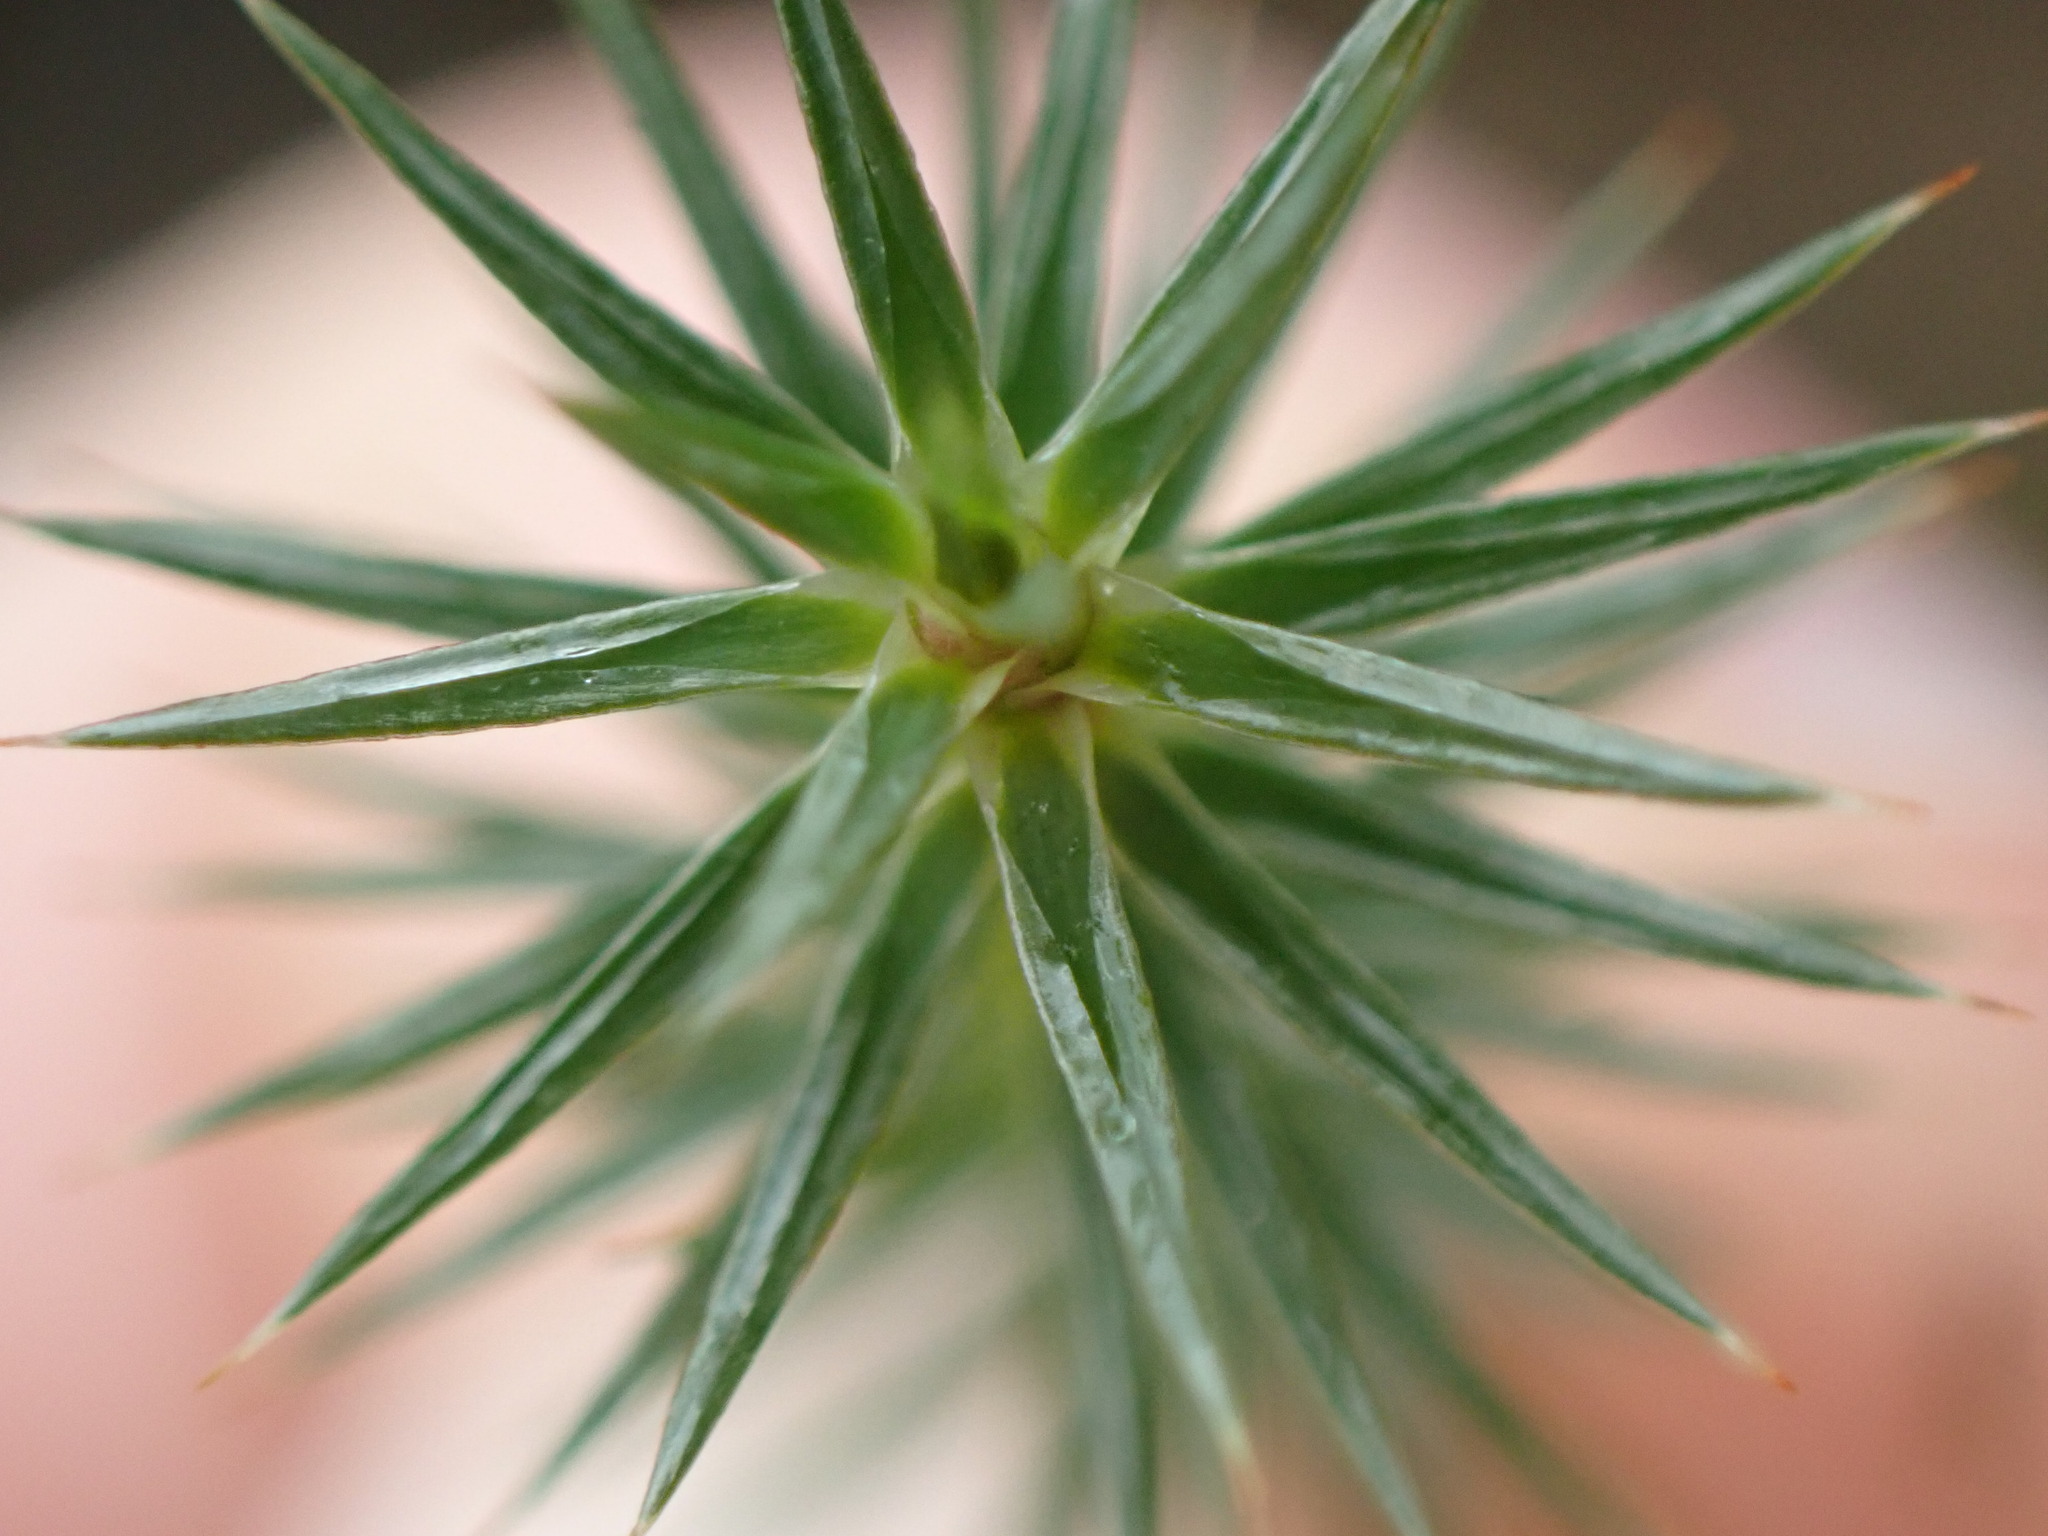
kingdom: Plantae
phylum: Bryophyta
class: Polytrichopsida
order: Polytrichales
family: Polytrichaceae
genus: Polytrichum
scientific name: Polytrichum juniperinum
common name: Juniper haircap moss
